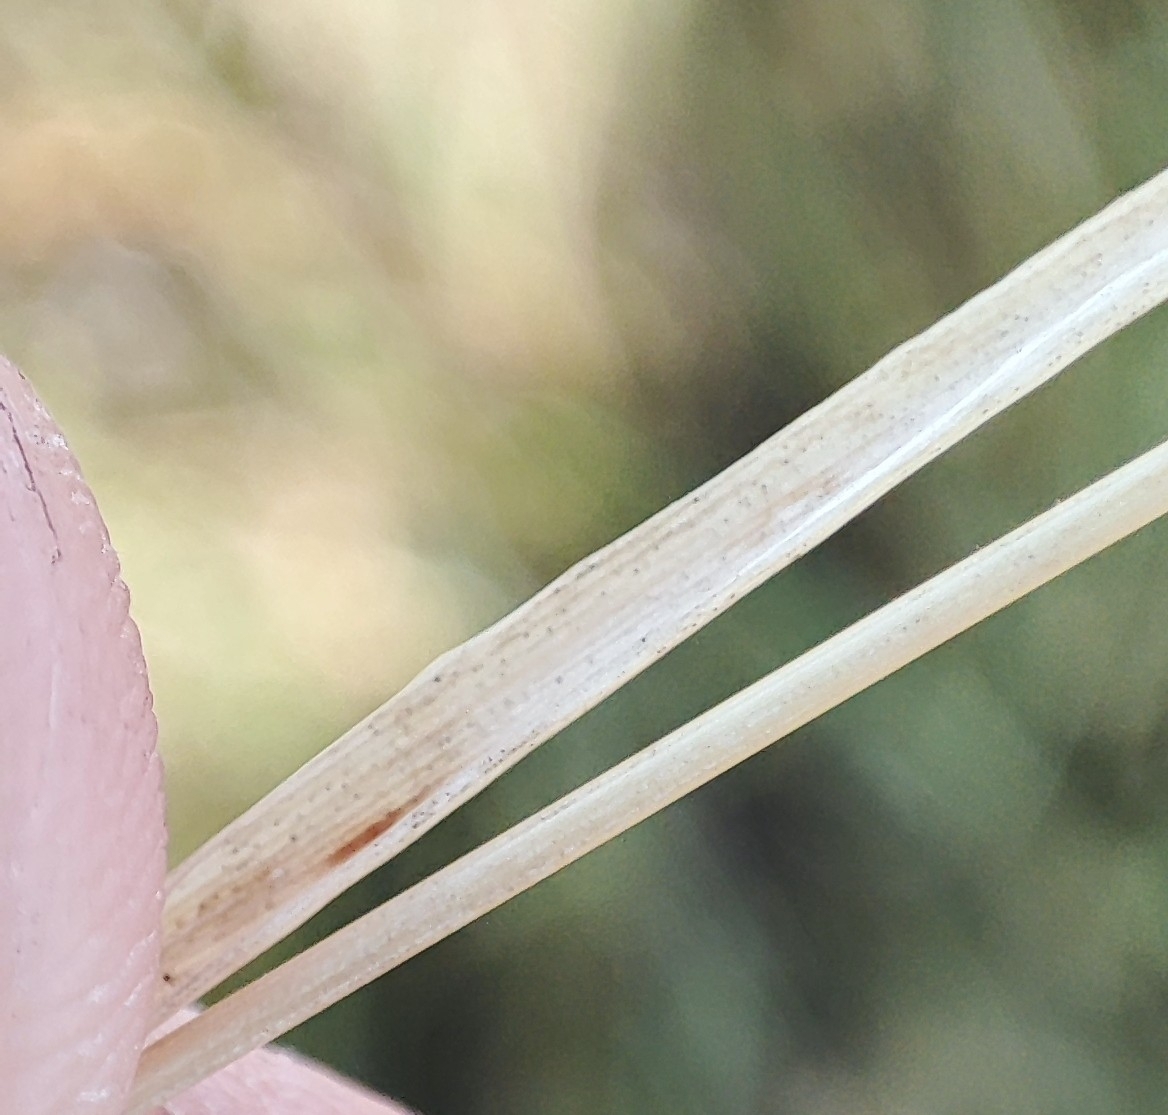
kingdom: Plantae
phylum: Tracheophyta
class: Liliopsida
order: Poales
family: Poaceae
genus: Poa
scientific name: Poa pratensis
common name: Kentucky bluegrass
